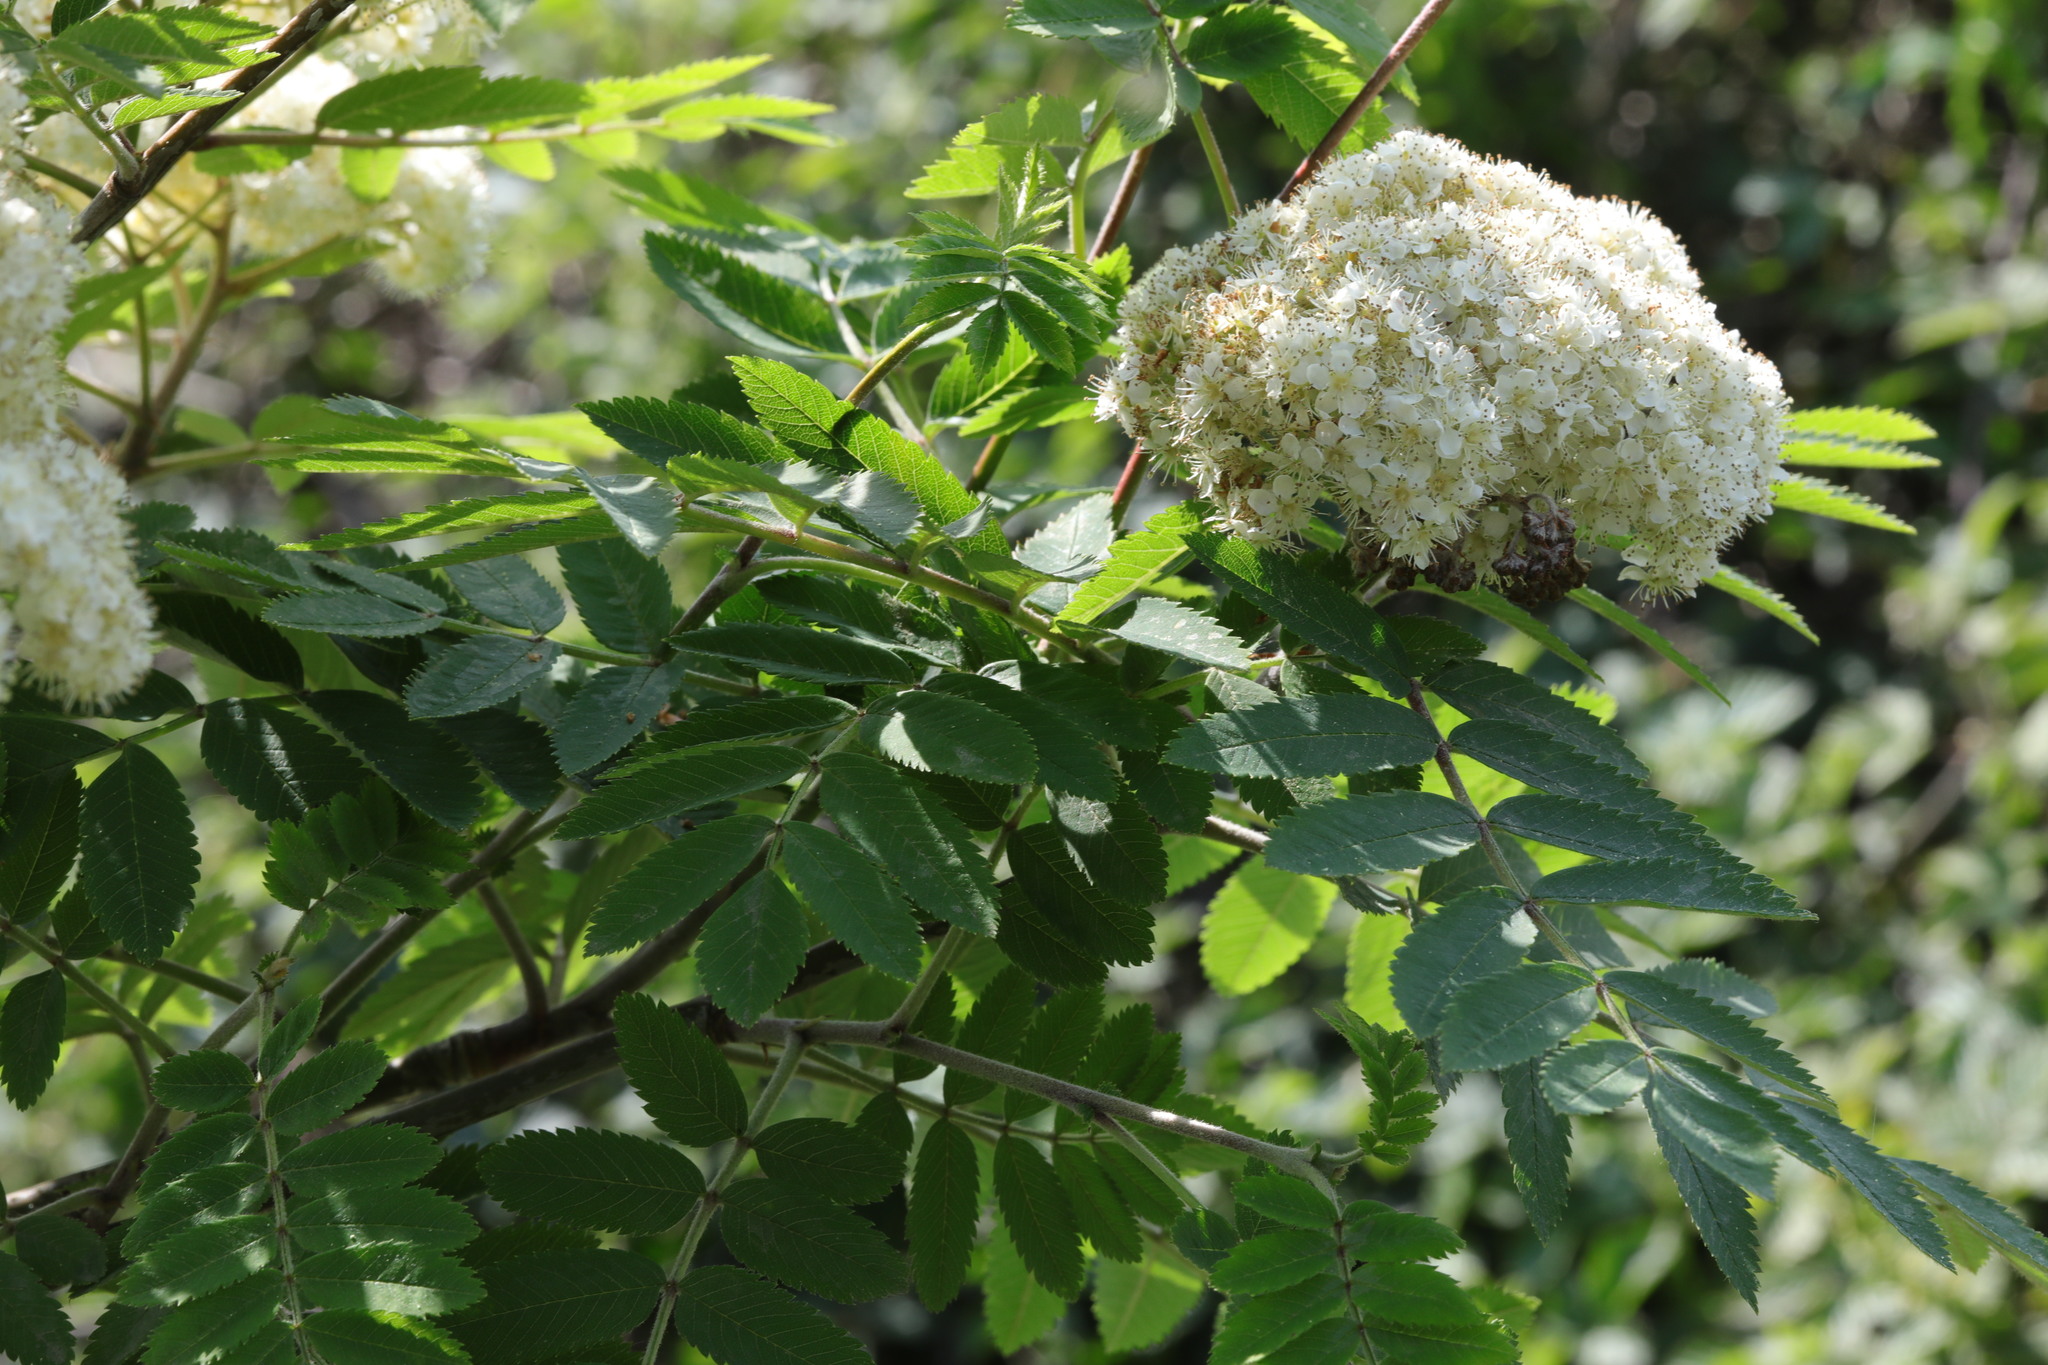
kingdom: Plantae
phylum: Tracheophyta
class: Magnoliopsida
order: Rosales
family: Rosaceae
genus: Sorbus
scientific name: Sorbus aucuparia
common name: Rowan
